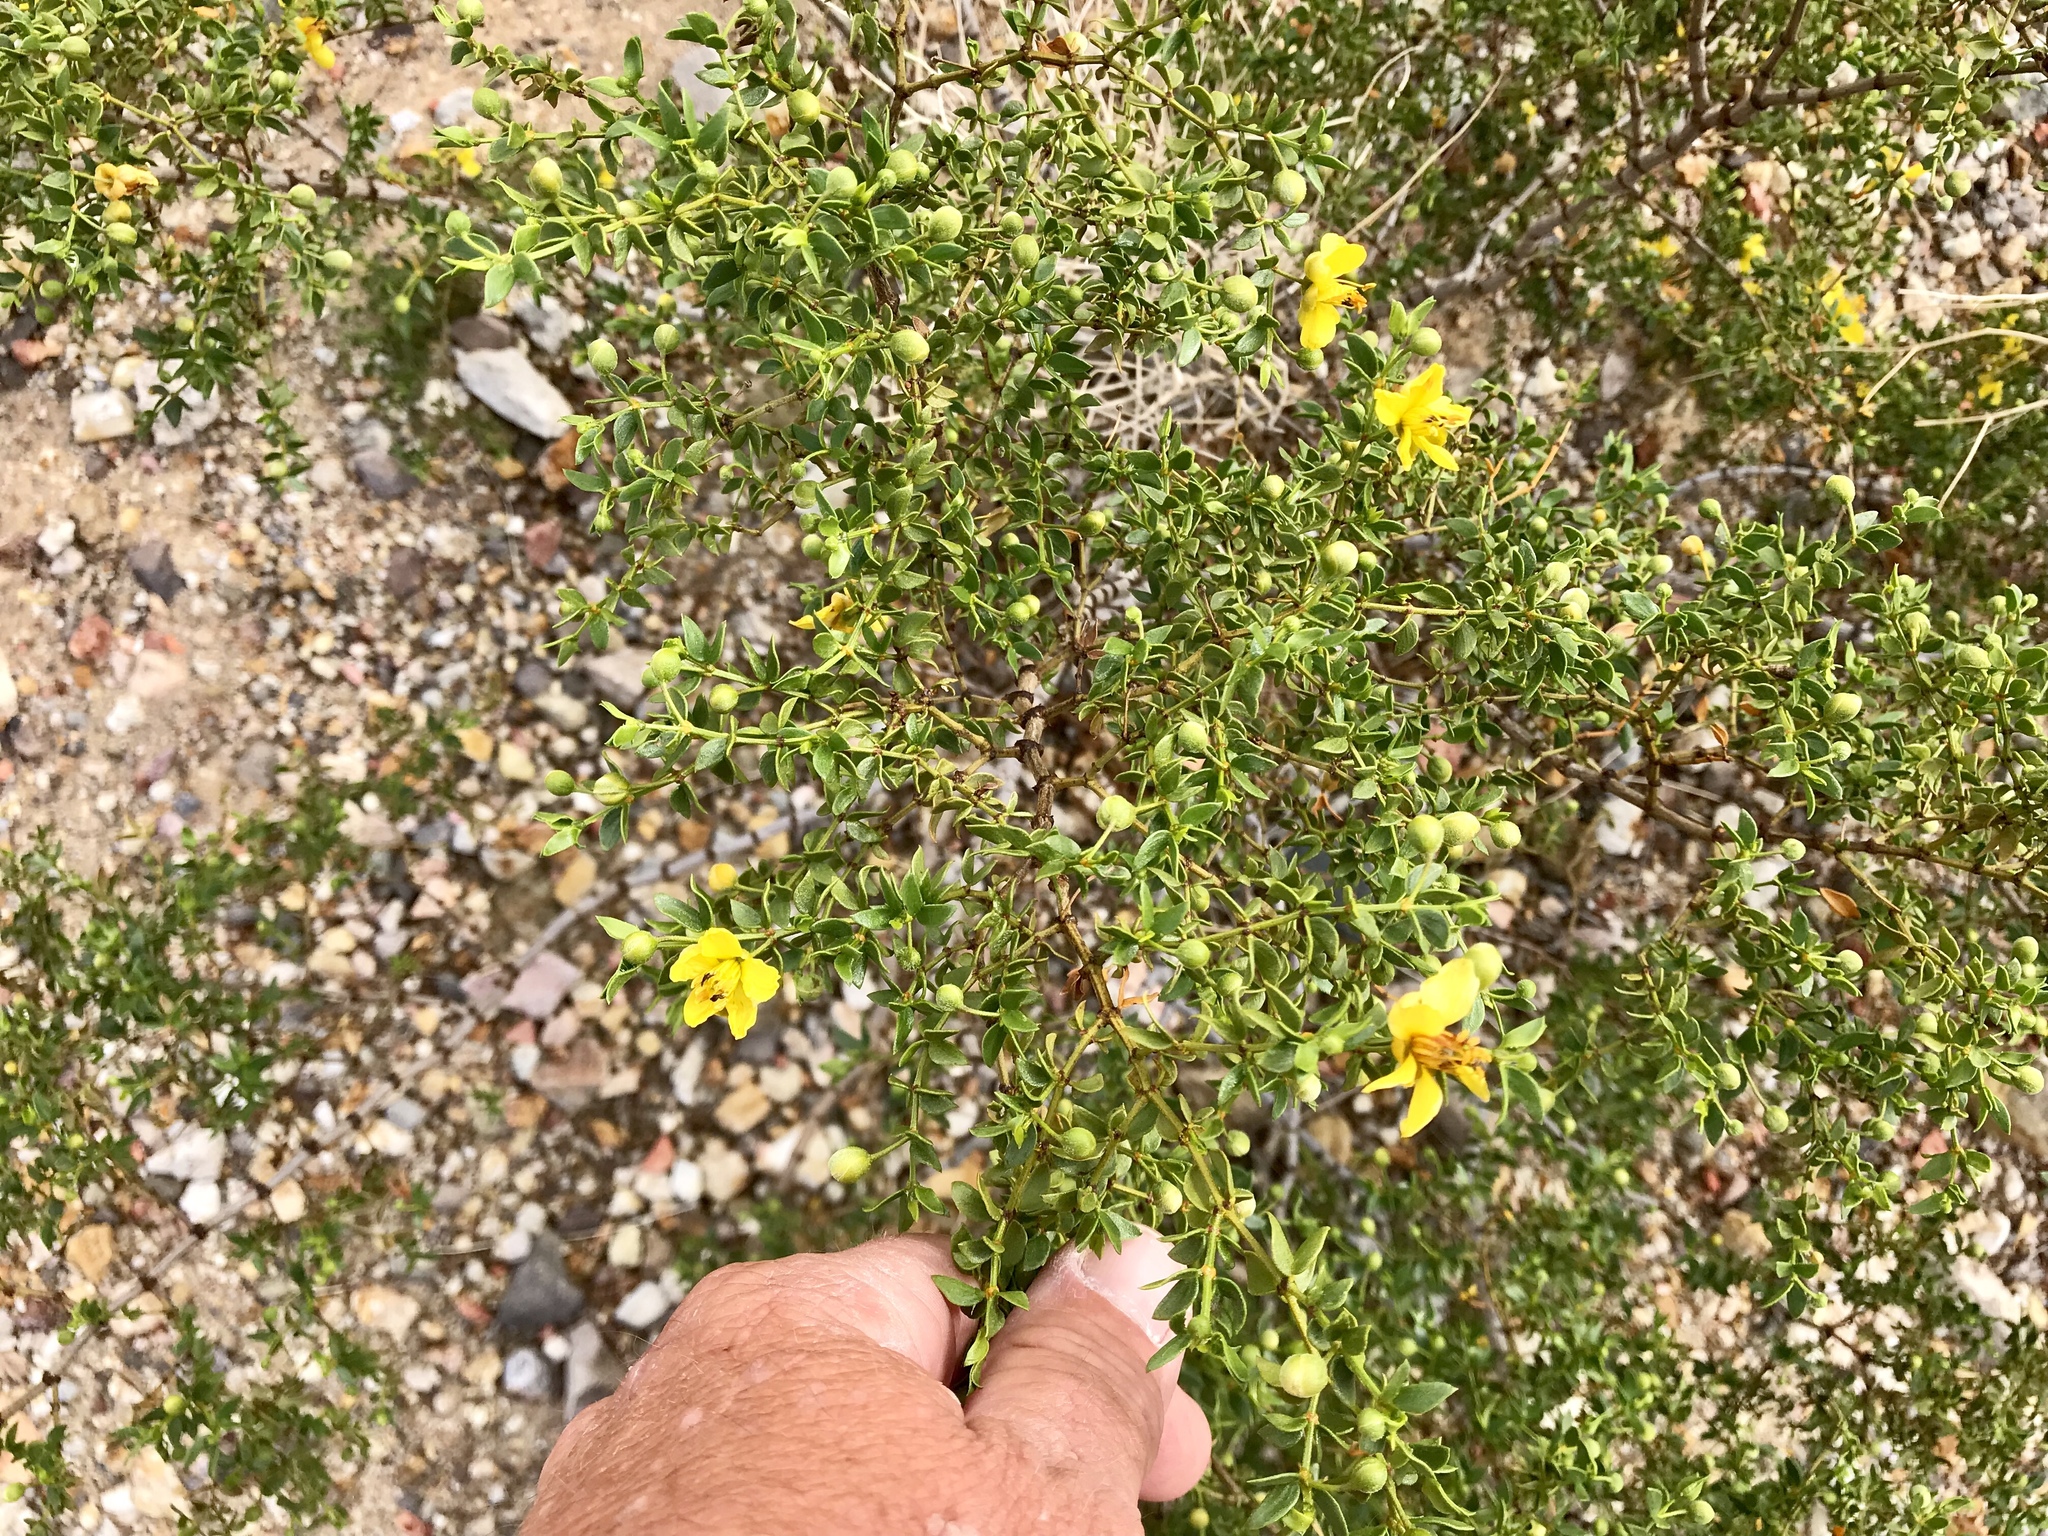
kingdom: Plantae
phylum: Tracheophyta
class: Magnoliopsida
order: Zygophyllales
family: Zygophyllaceae
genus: Larrea
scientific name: Larrea tridentata
